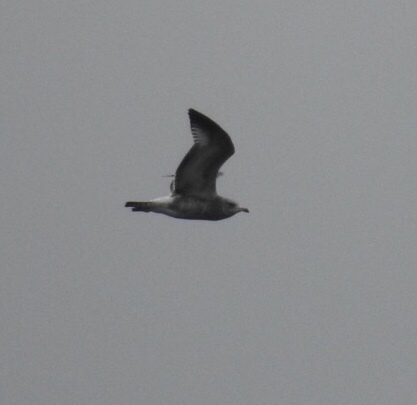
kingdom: Animalia
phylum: Chordata
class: Aves
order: Charadriiformes
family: Laridae
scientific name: Laridae
